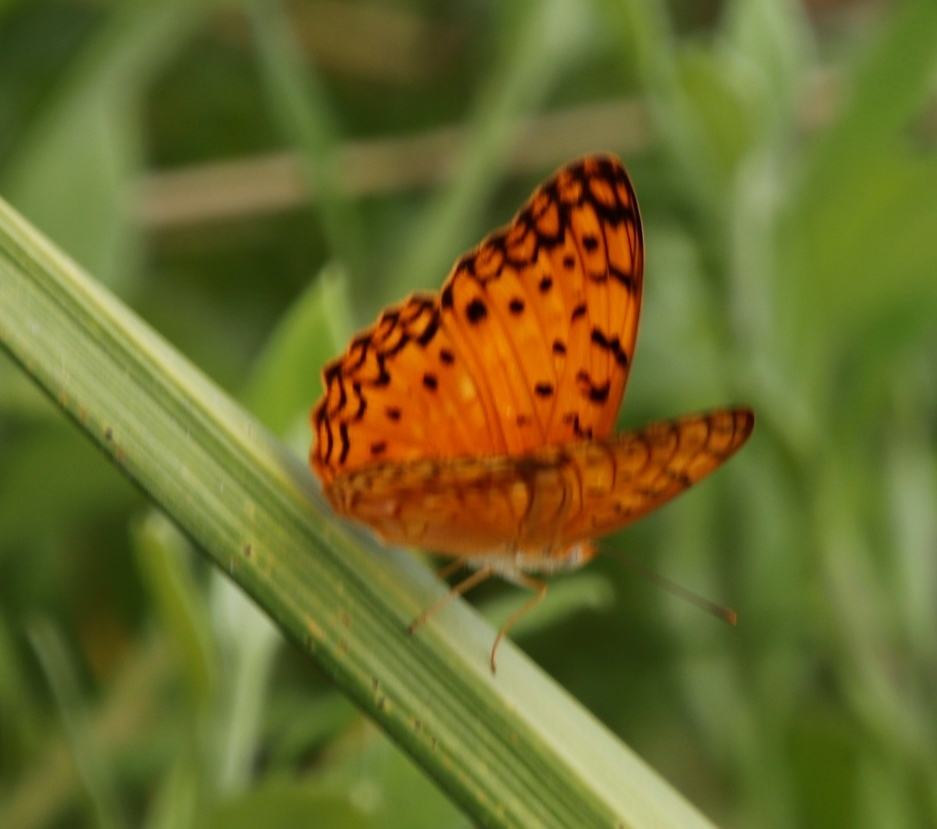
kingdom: Animalia
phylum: Arthropoda
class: Insecta
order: Lepidoptera
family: Nymphalidae
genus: Phalanta
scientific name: Phalanta phalantha
